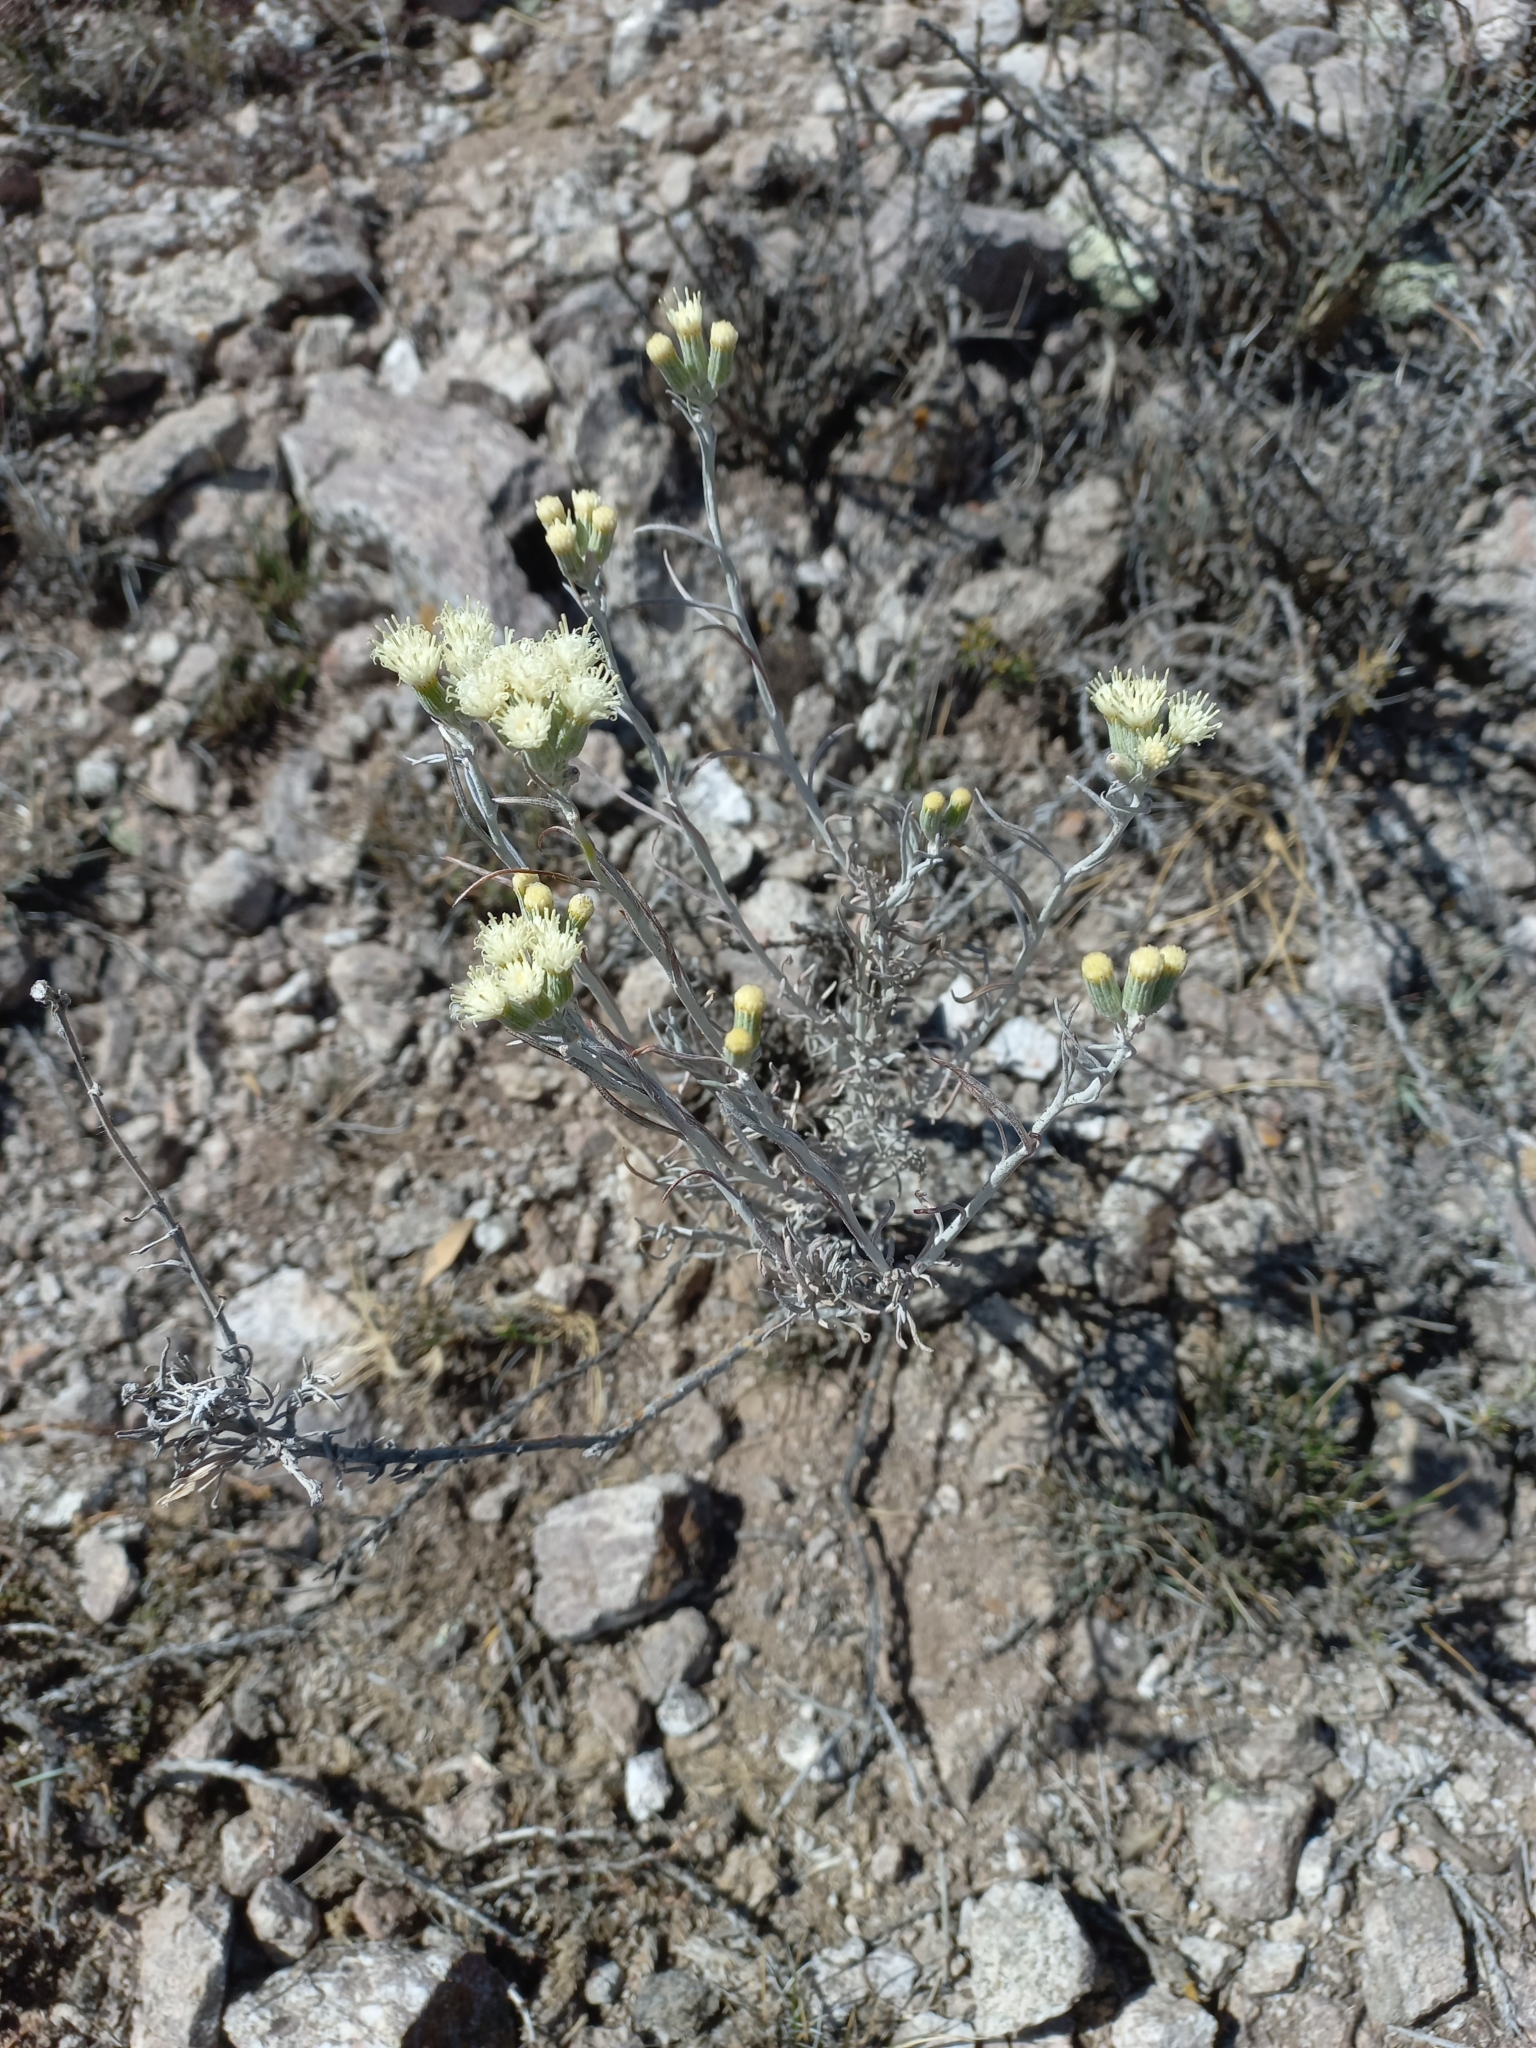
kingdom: Plantae
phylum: Tracheophyta
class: Magnoliopsida
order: Asterales
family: Asteraceae
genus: Senecio
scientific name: Senecio filaginoides
